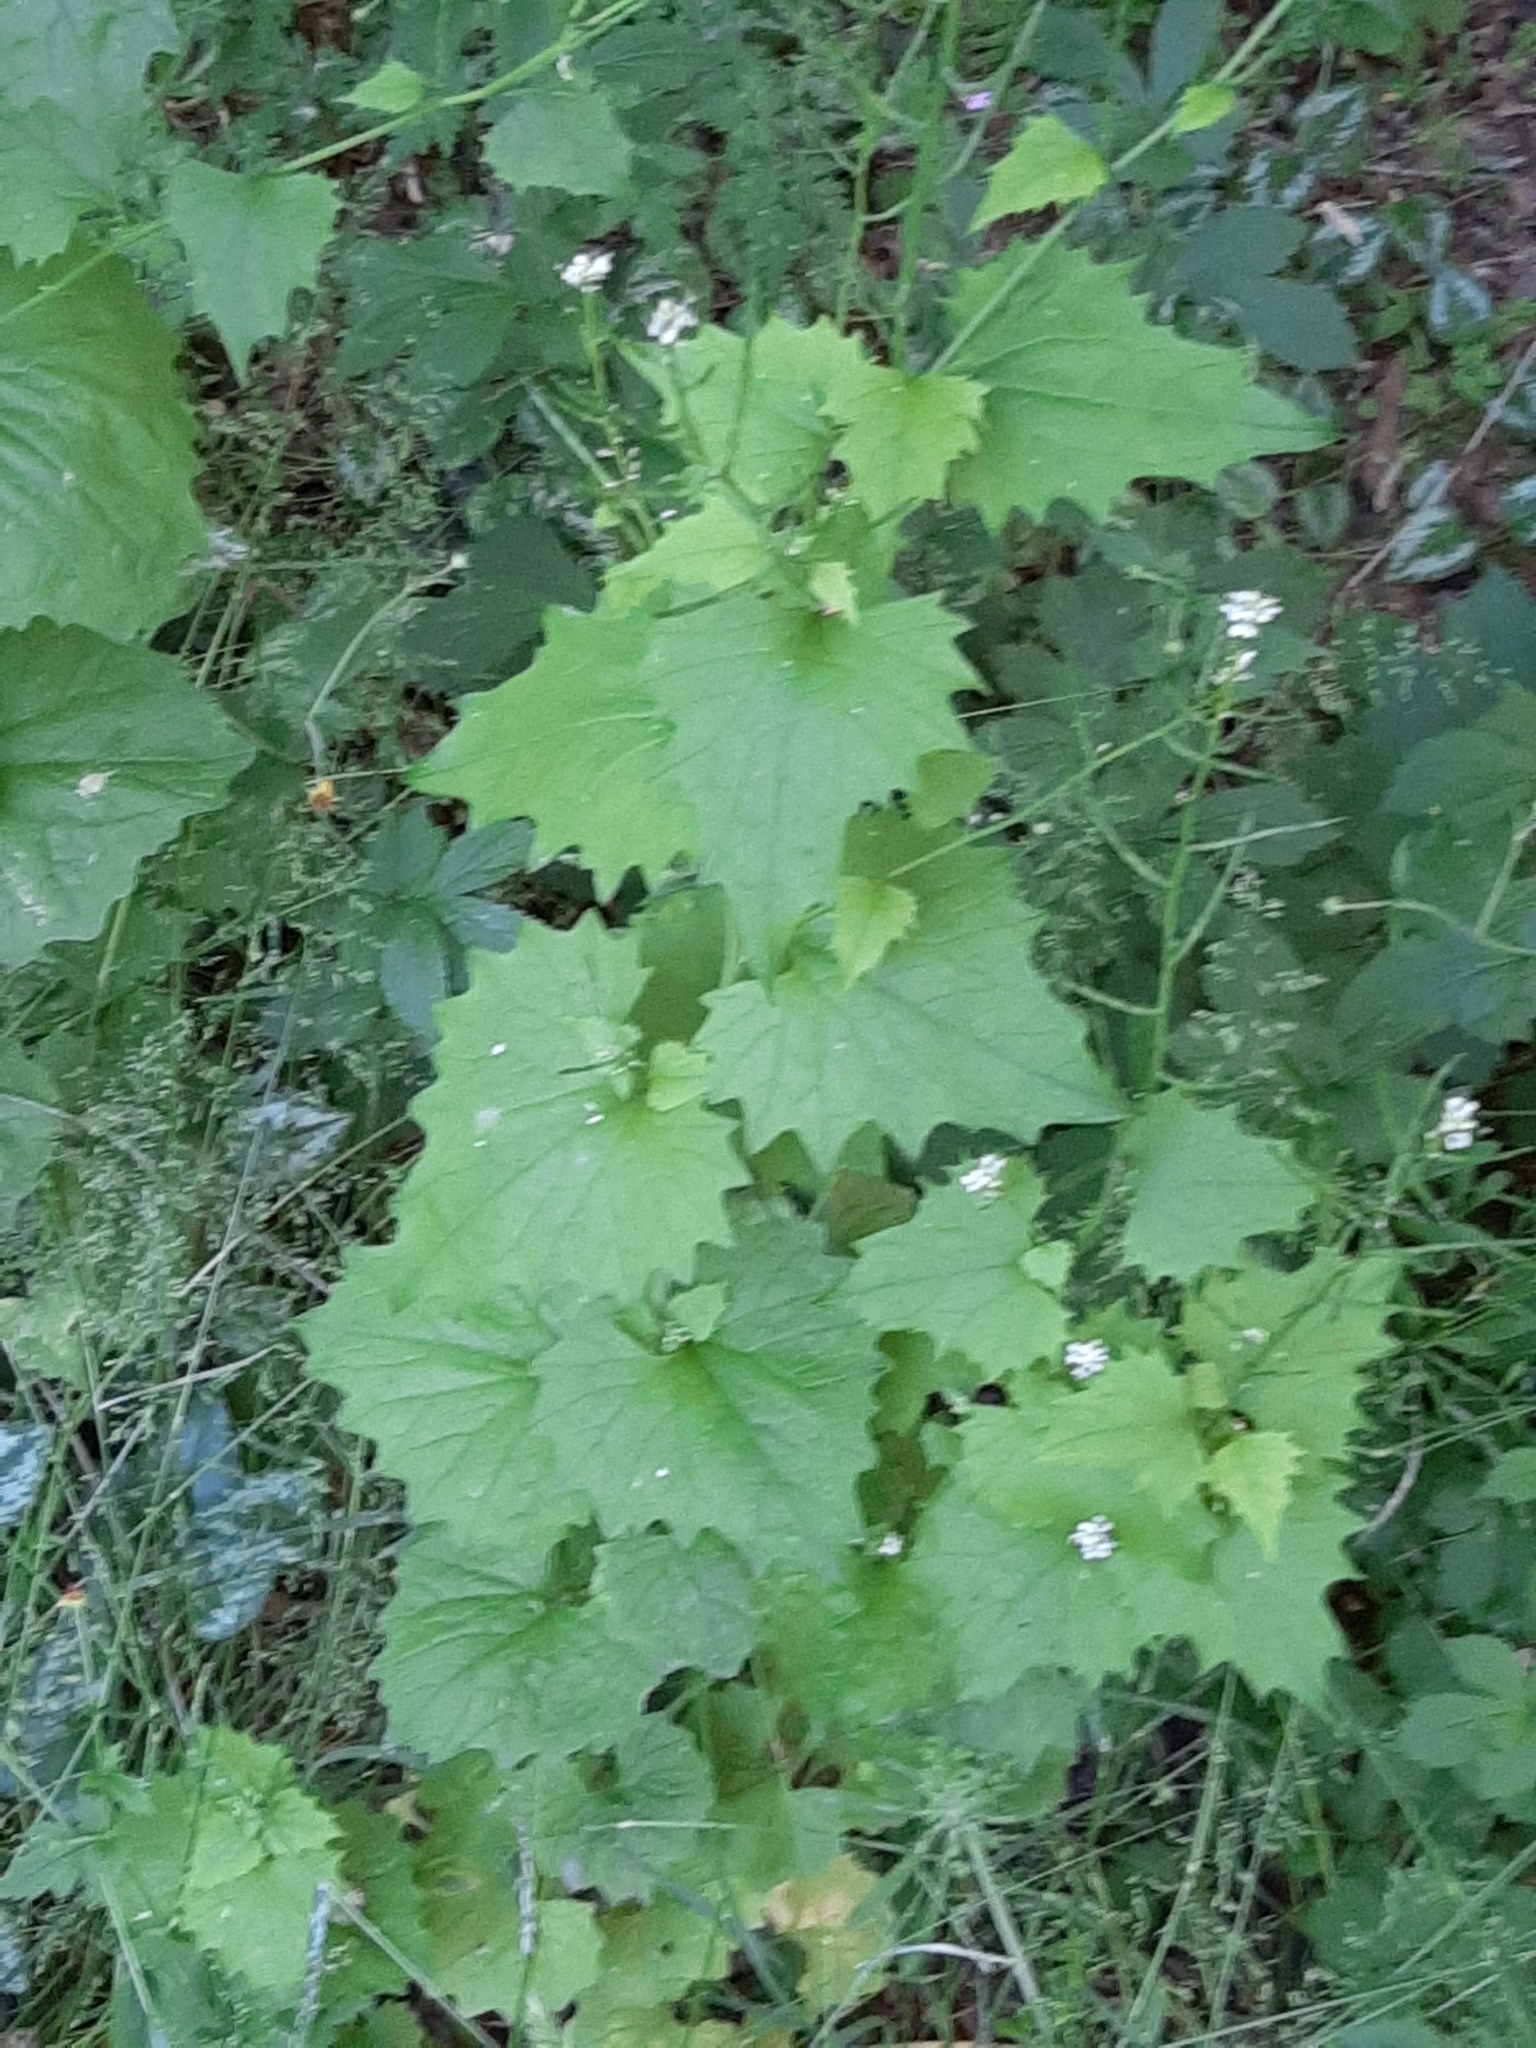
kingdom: Plantae
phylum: Tracheophyta
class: Magnoliopsida
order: Brassicales
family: Brassicaceae
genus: Alliaria
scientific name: Alliaria petiolata
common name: Garlic mustard
